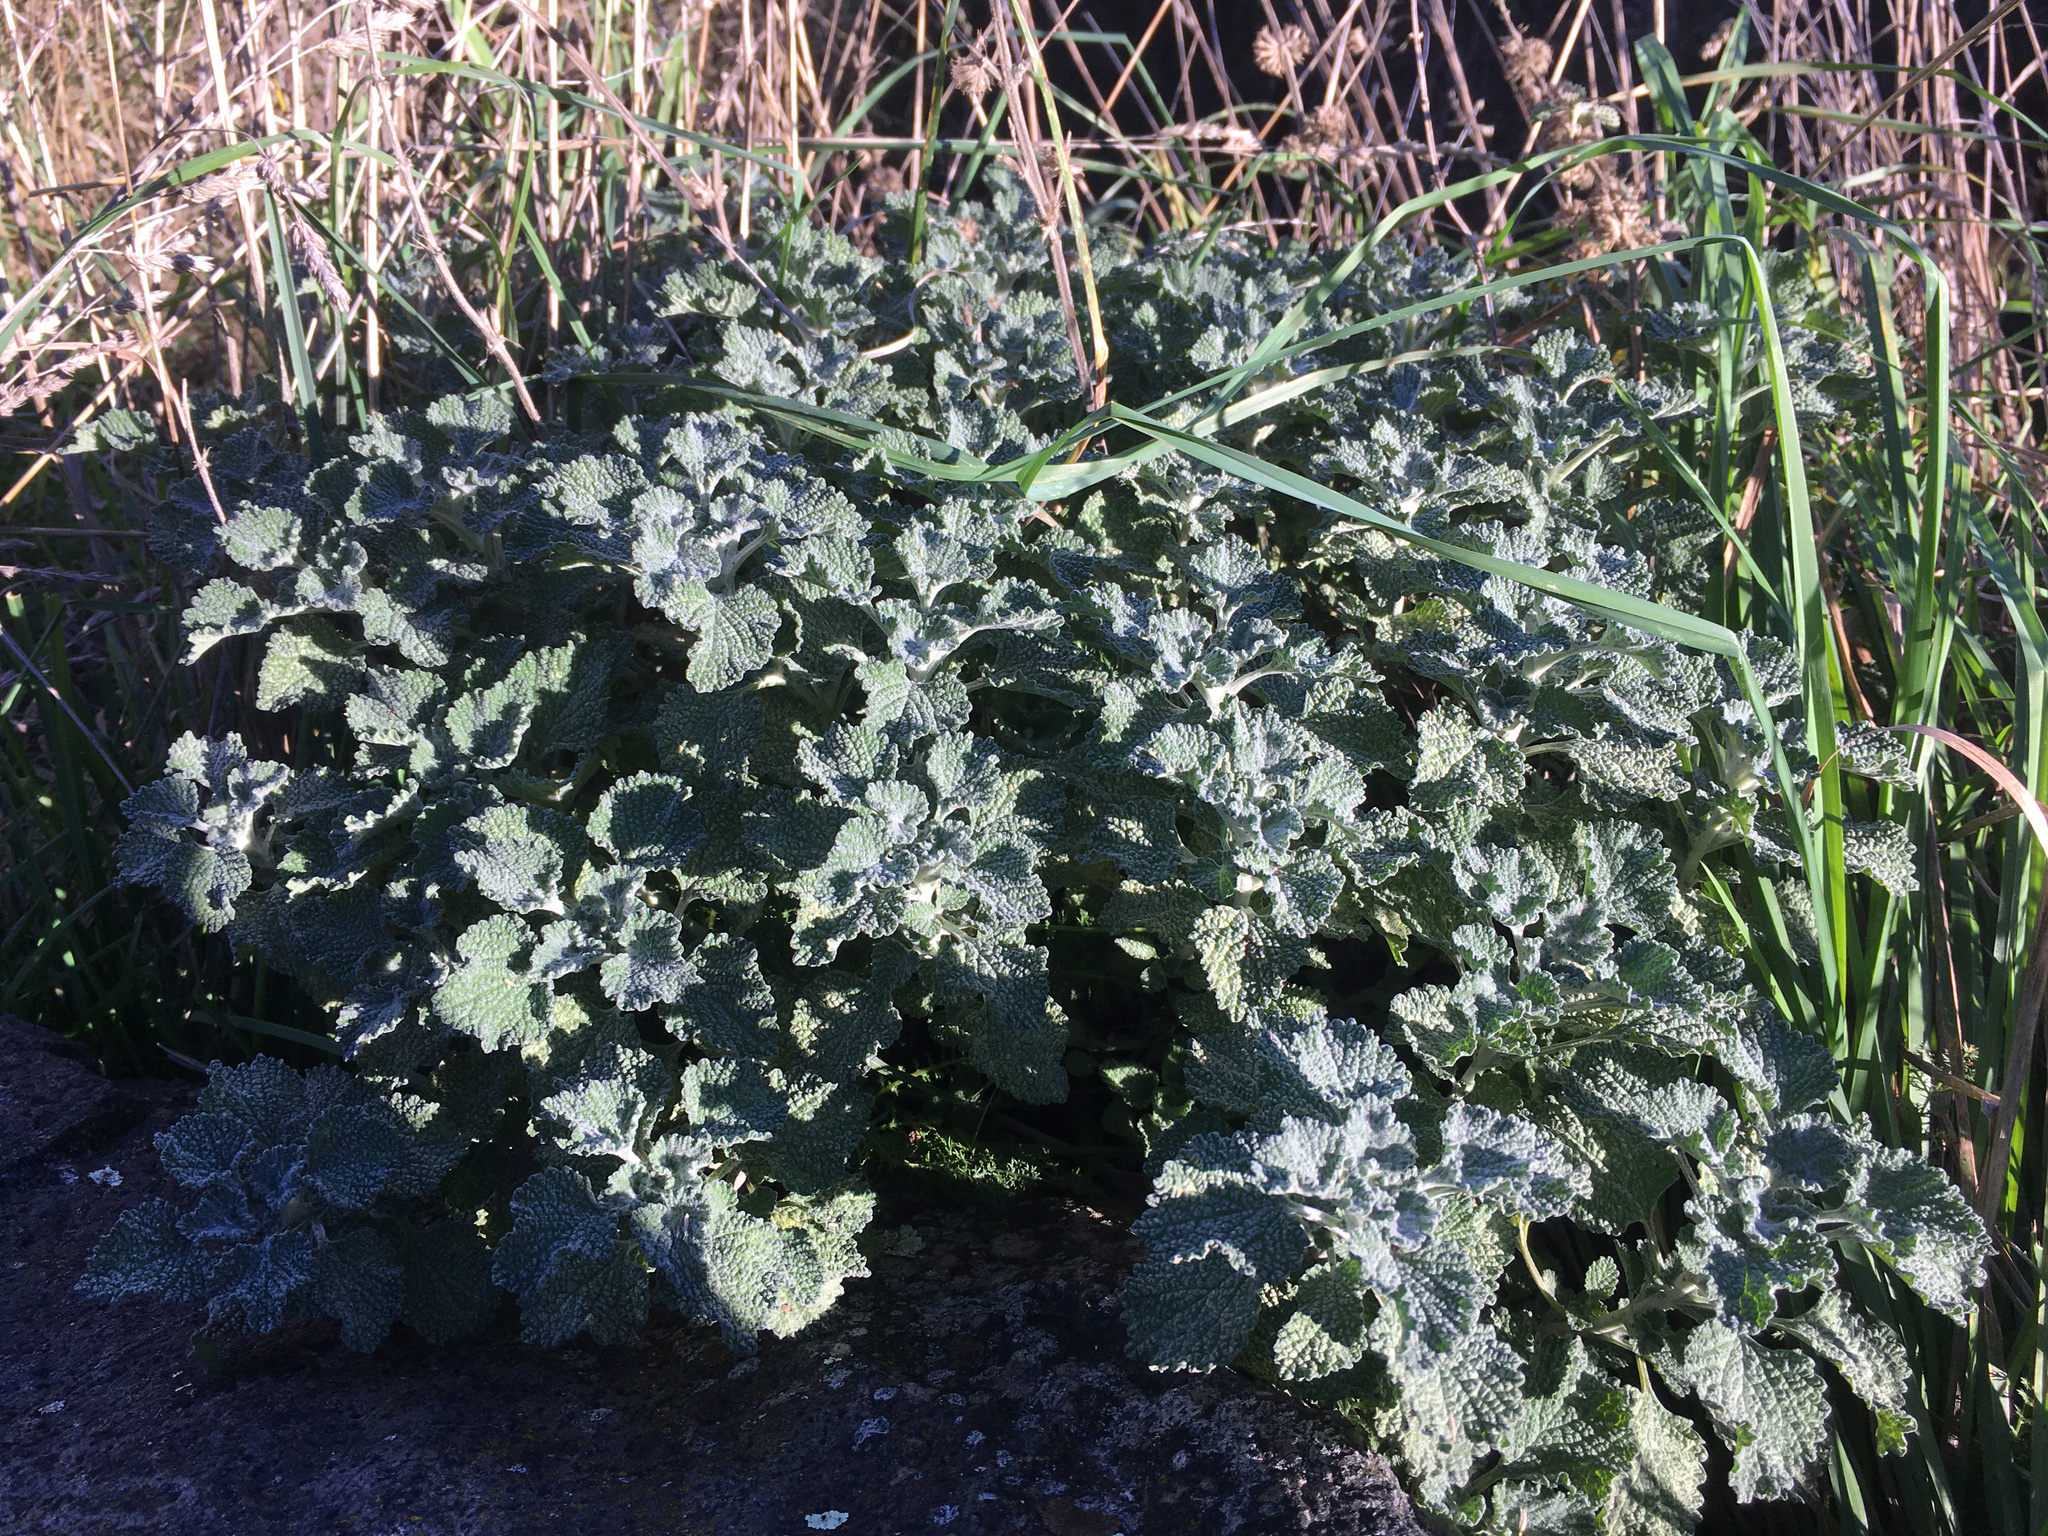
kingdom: Plantae
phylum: Tracheophyta
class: Magnoliopsida
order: Lamiales
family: Lamiaceae
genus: Marrubium
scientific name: Marrubium vulgare
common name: Horehound
